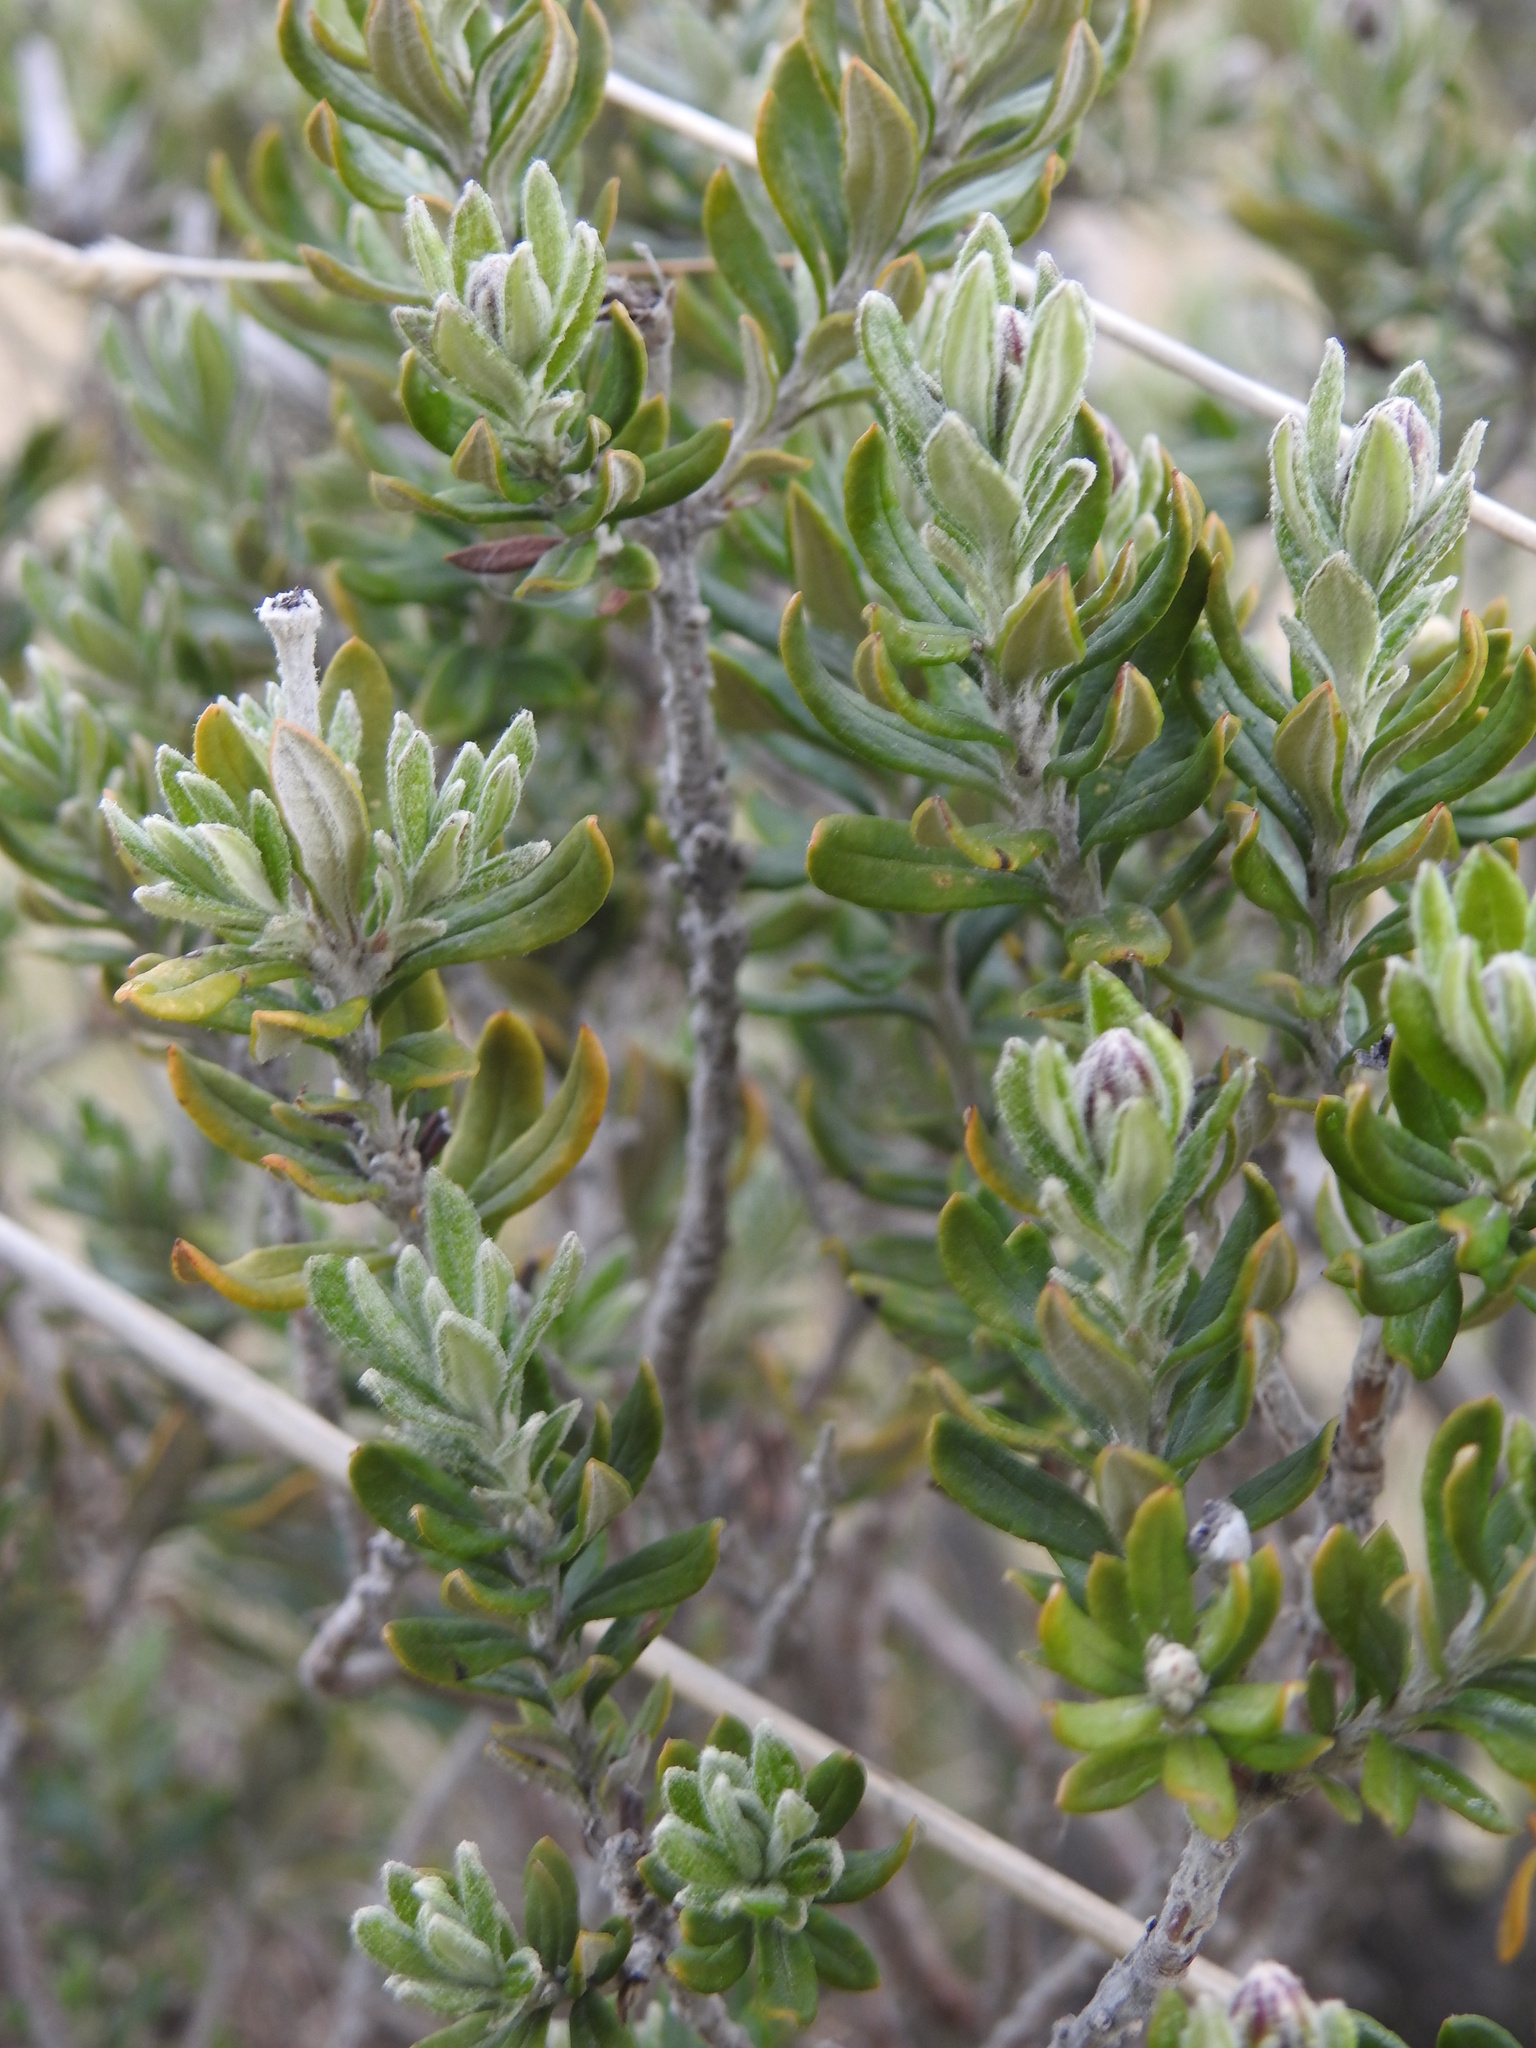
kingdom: Plantae
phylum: Tracheophyta
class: Magnoliopsida
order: Asterales
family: Asteraceae
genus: Chiliotrichum
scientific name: Chiliotrichum diffusum
